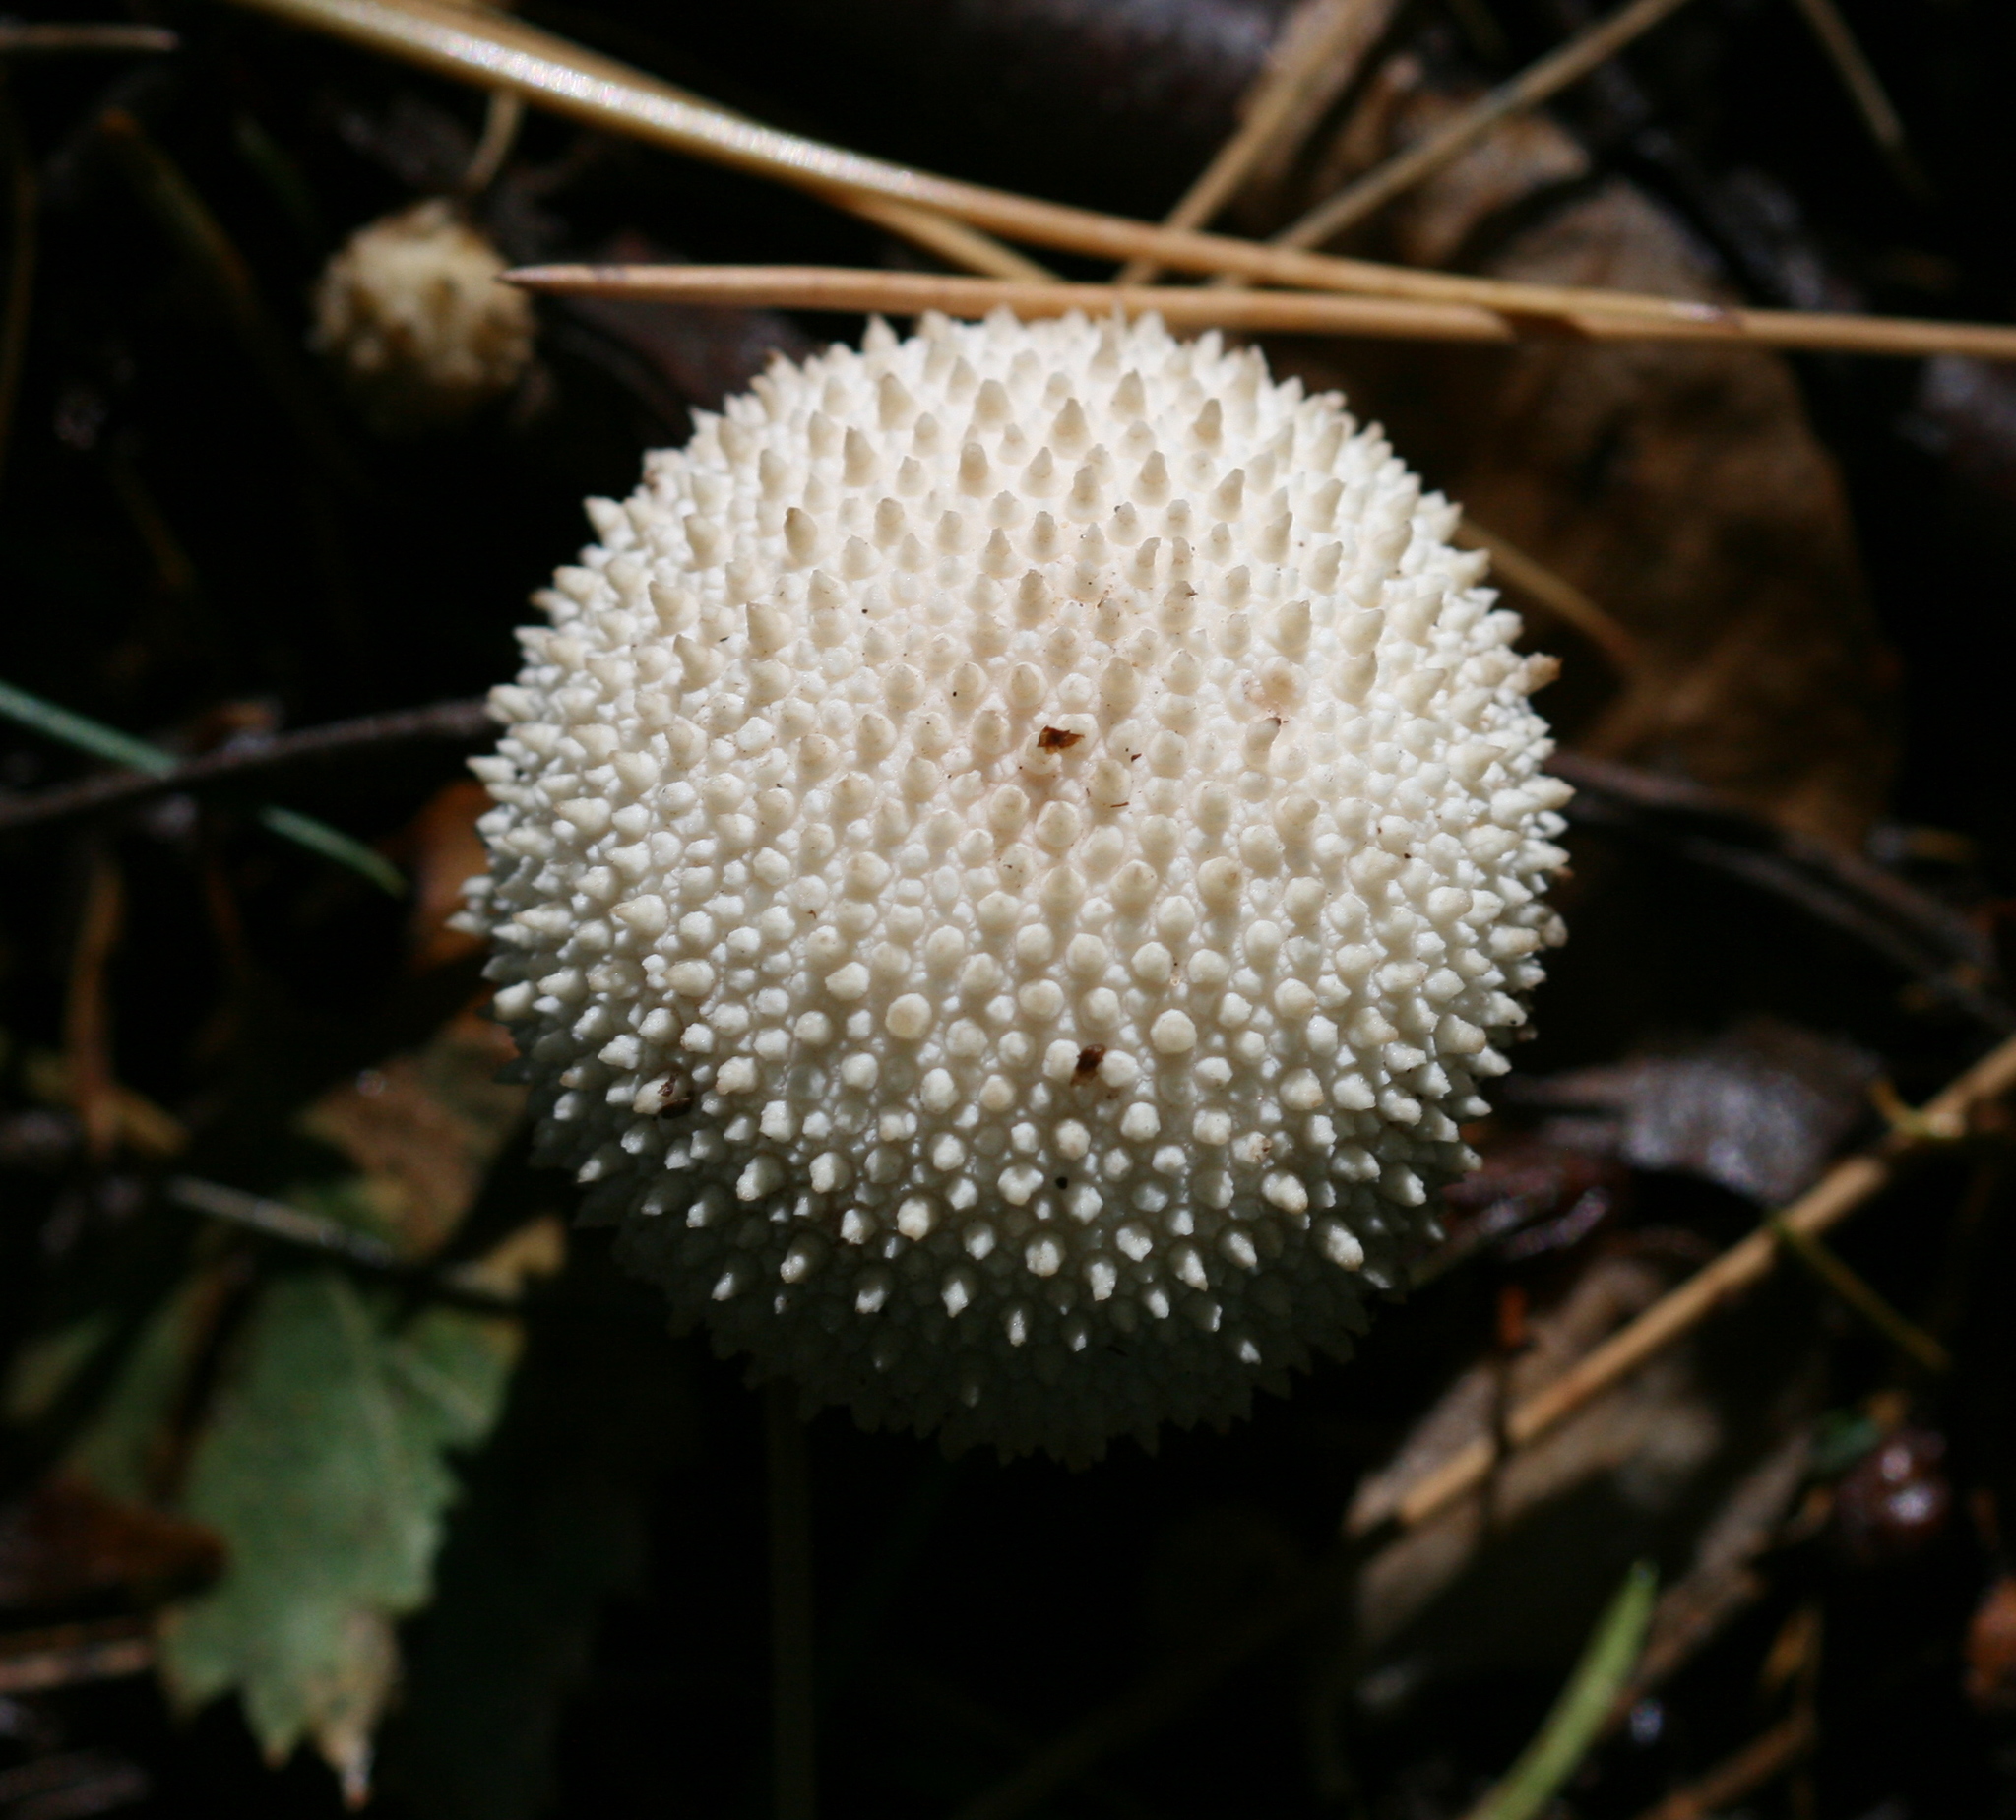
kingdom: Fungi
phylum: Basidiomycota
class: Agaricomycetes
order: Agaricales
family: Lycoperdaceae
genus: Lycoperdon
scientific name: Lycoperdon perlatum
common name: Common puffball
